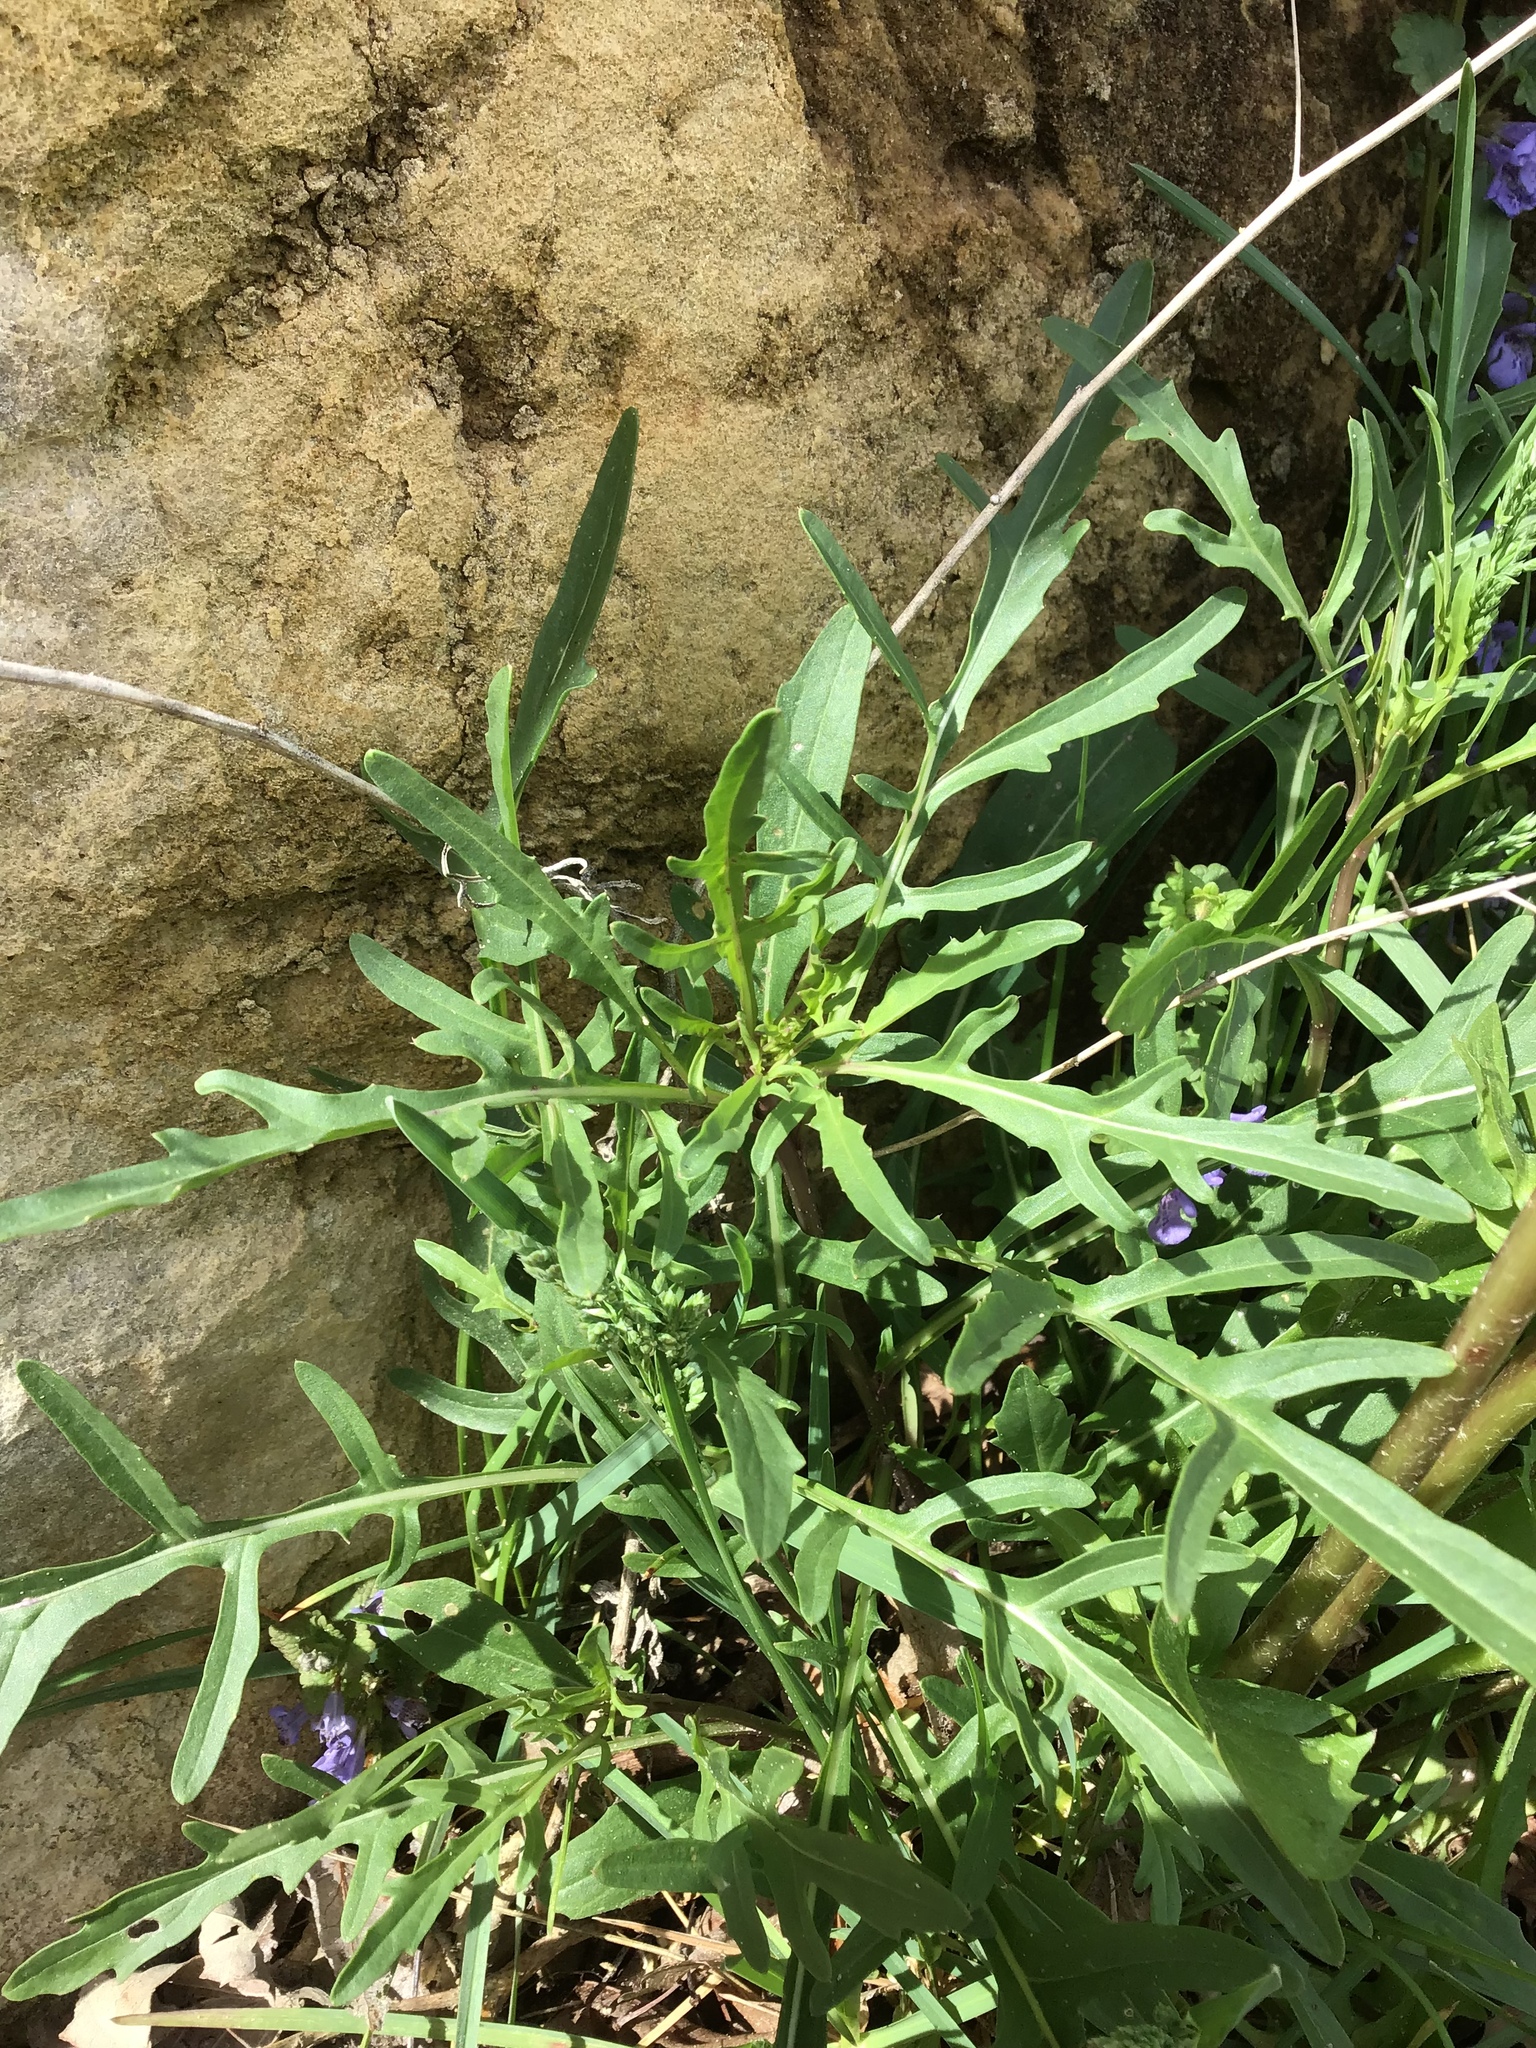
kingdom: Plantae
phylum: Tracheophyta
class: Magnoliopsida
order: Brassicales
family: Brassicaceae
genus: Diplotaxis
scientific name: Diplotaxis tenuifolia
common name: Perennial wall-rocket
